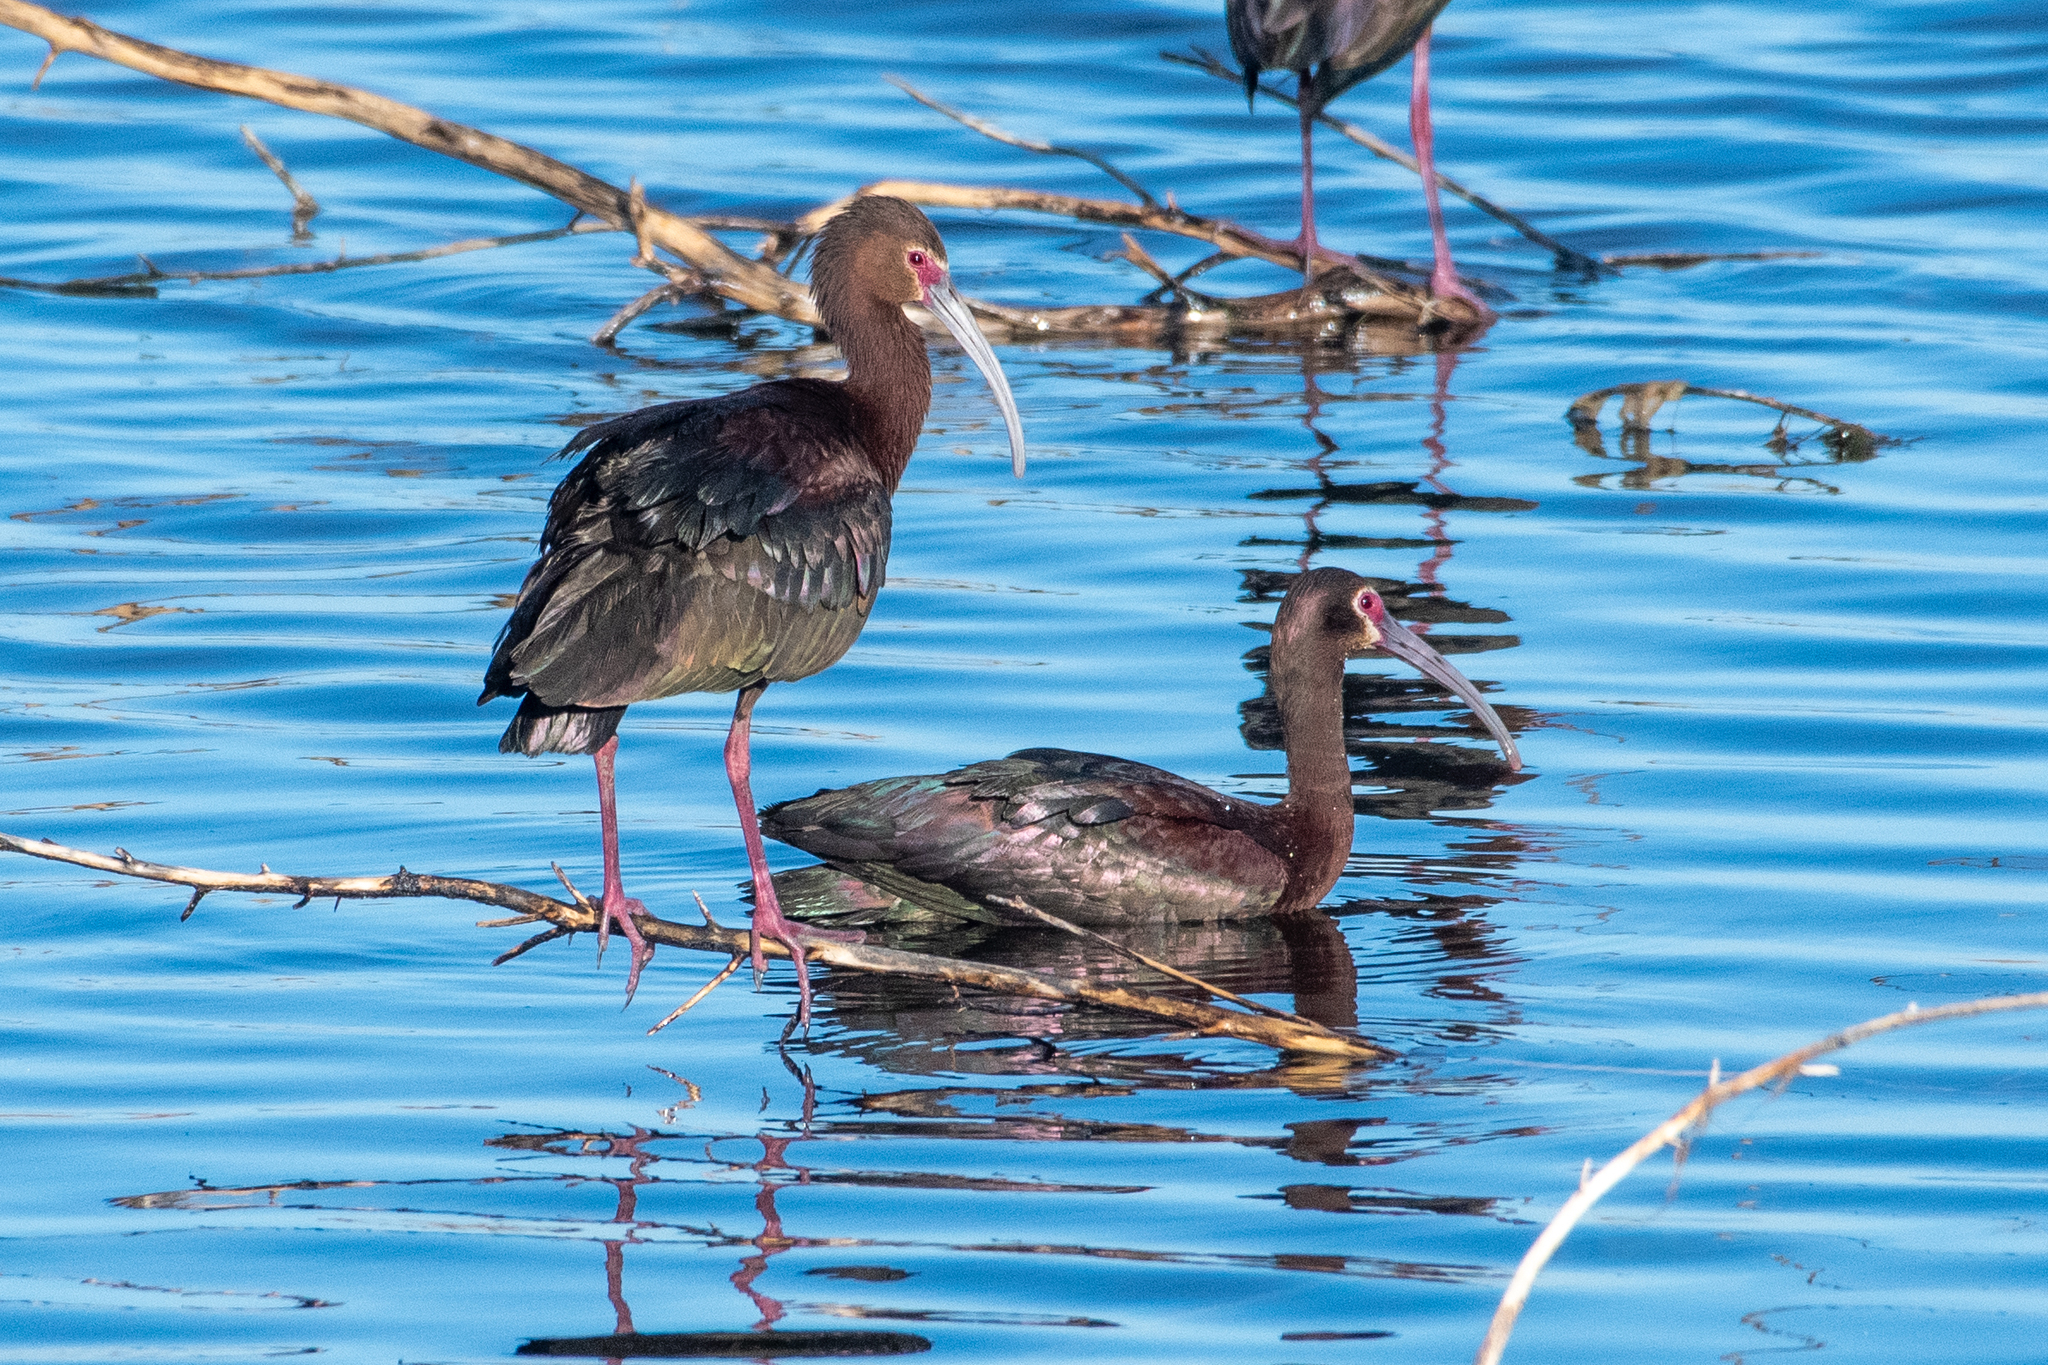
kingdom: Animalia
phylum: Chordata
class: Aves
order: Pelecaniformes
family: Threskiornithidae
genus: Plegadis
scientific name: Plegadis chihi
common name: White-faced ibis
